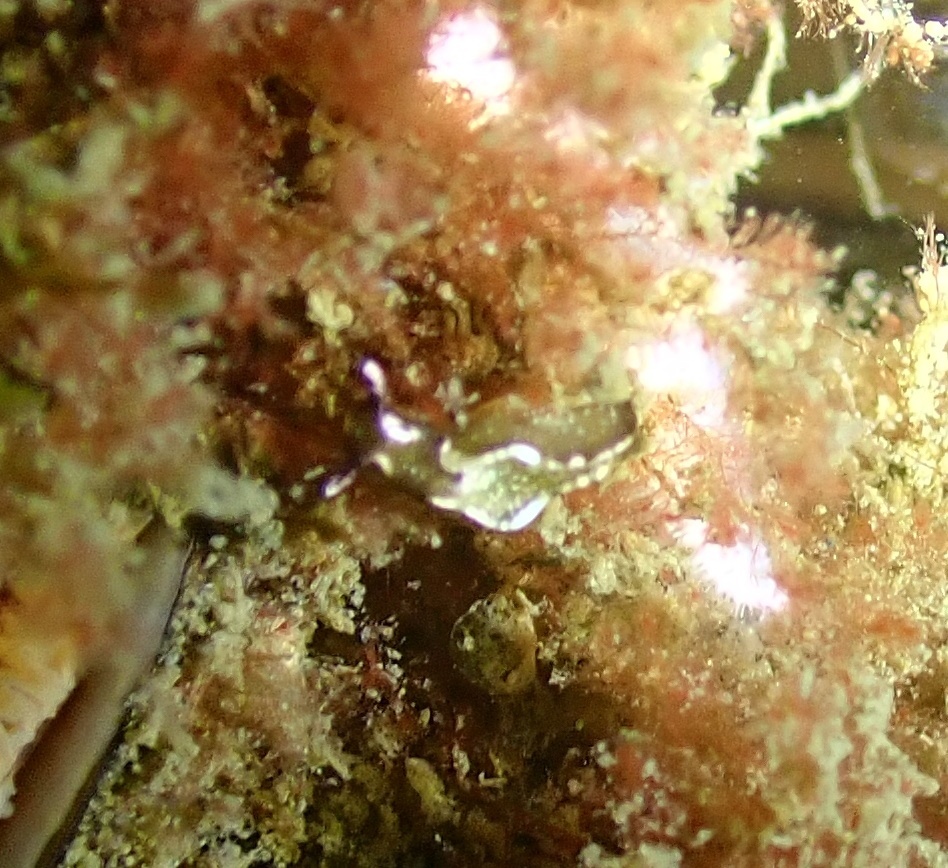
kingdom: Animalia
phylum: Mollusca
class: Gastropoda
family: Plakobranchidae
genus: Elysia
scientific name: Elysia viridis
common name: Green elysia
